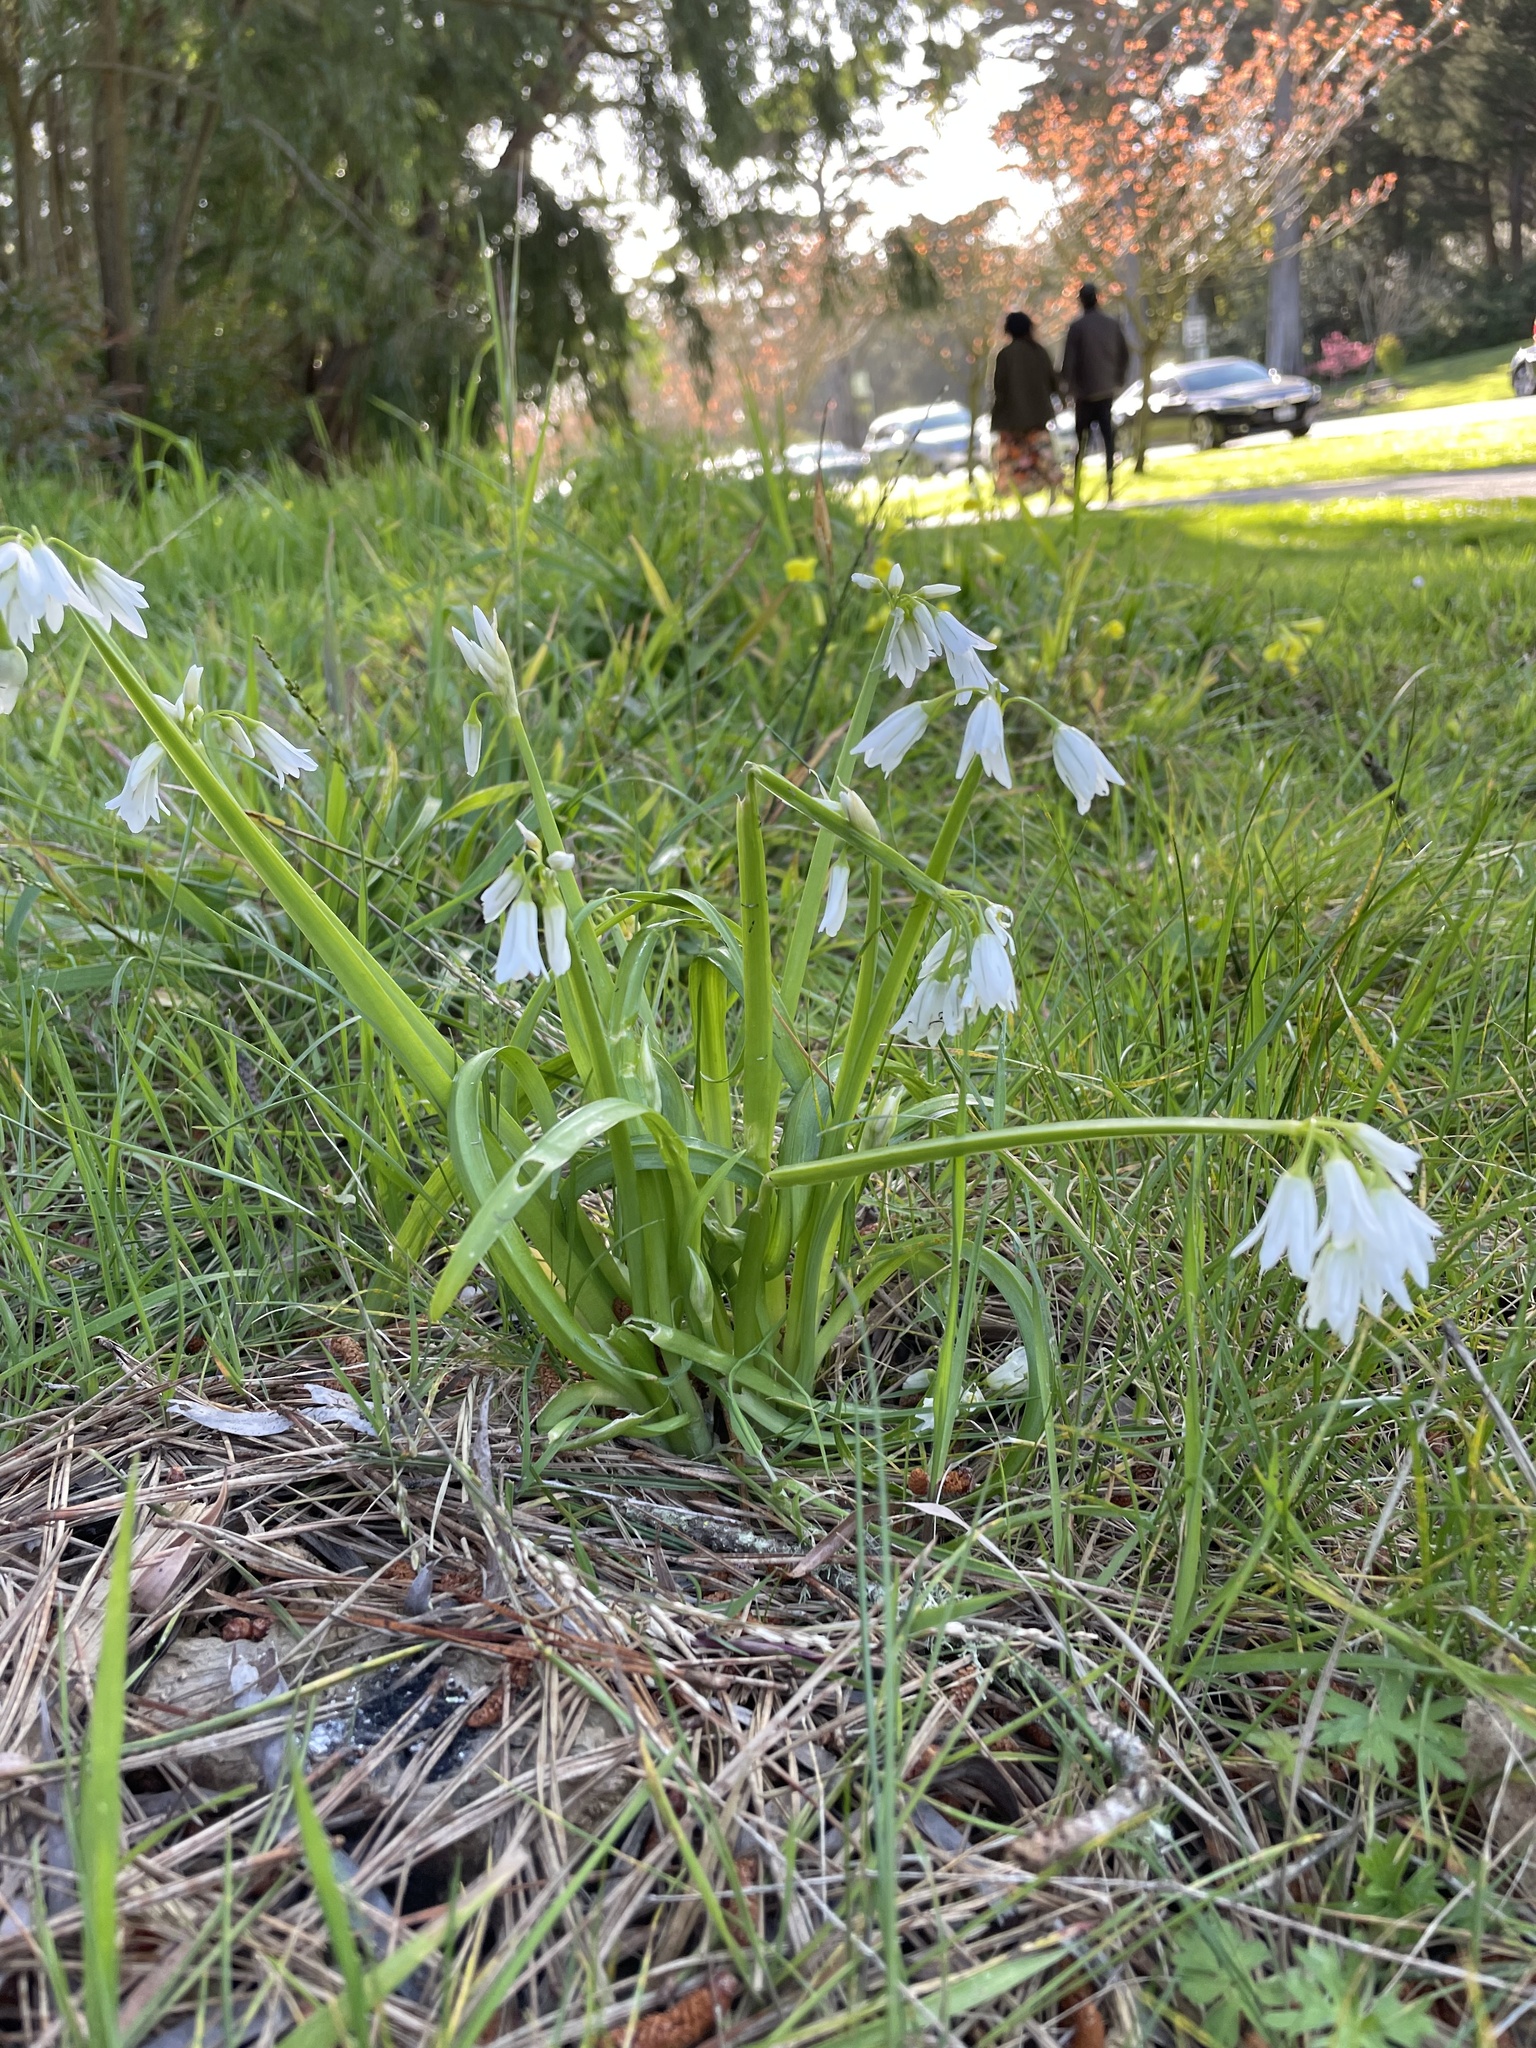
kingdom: Plantae
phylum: Tracheophyta
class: Liliopsida
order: Asparagales
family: Amaryllidaceae
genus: Allium
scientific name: Allium triquetrum
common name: Three-cornered garlic
